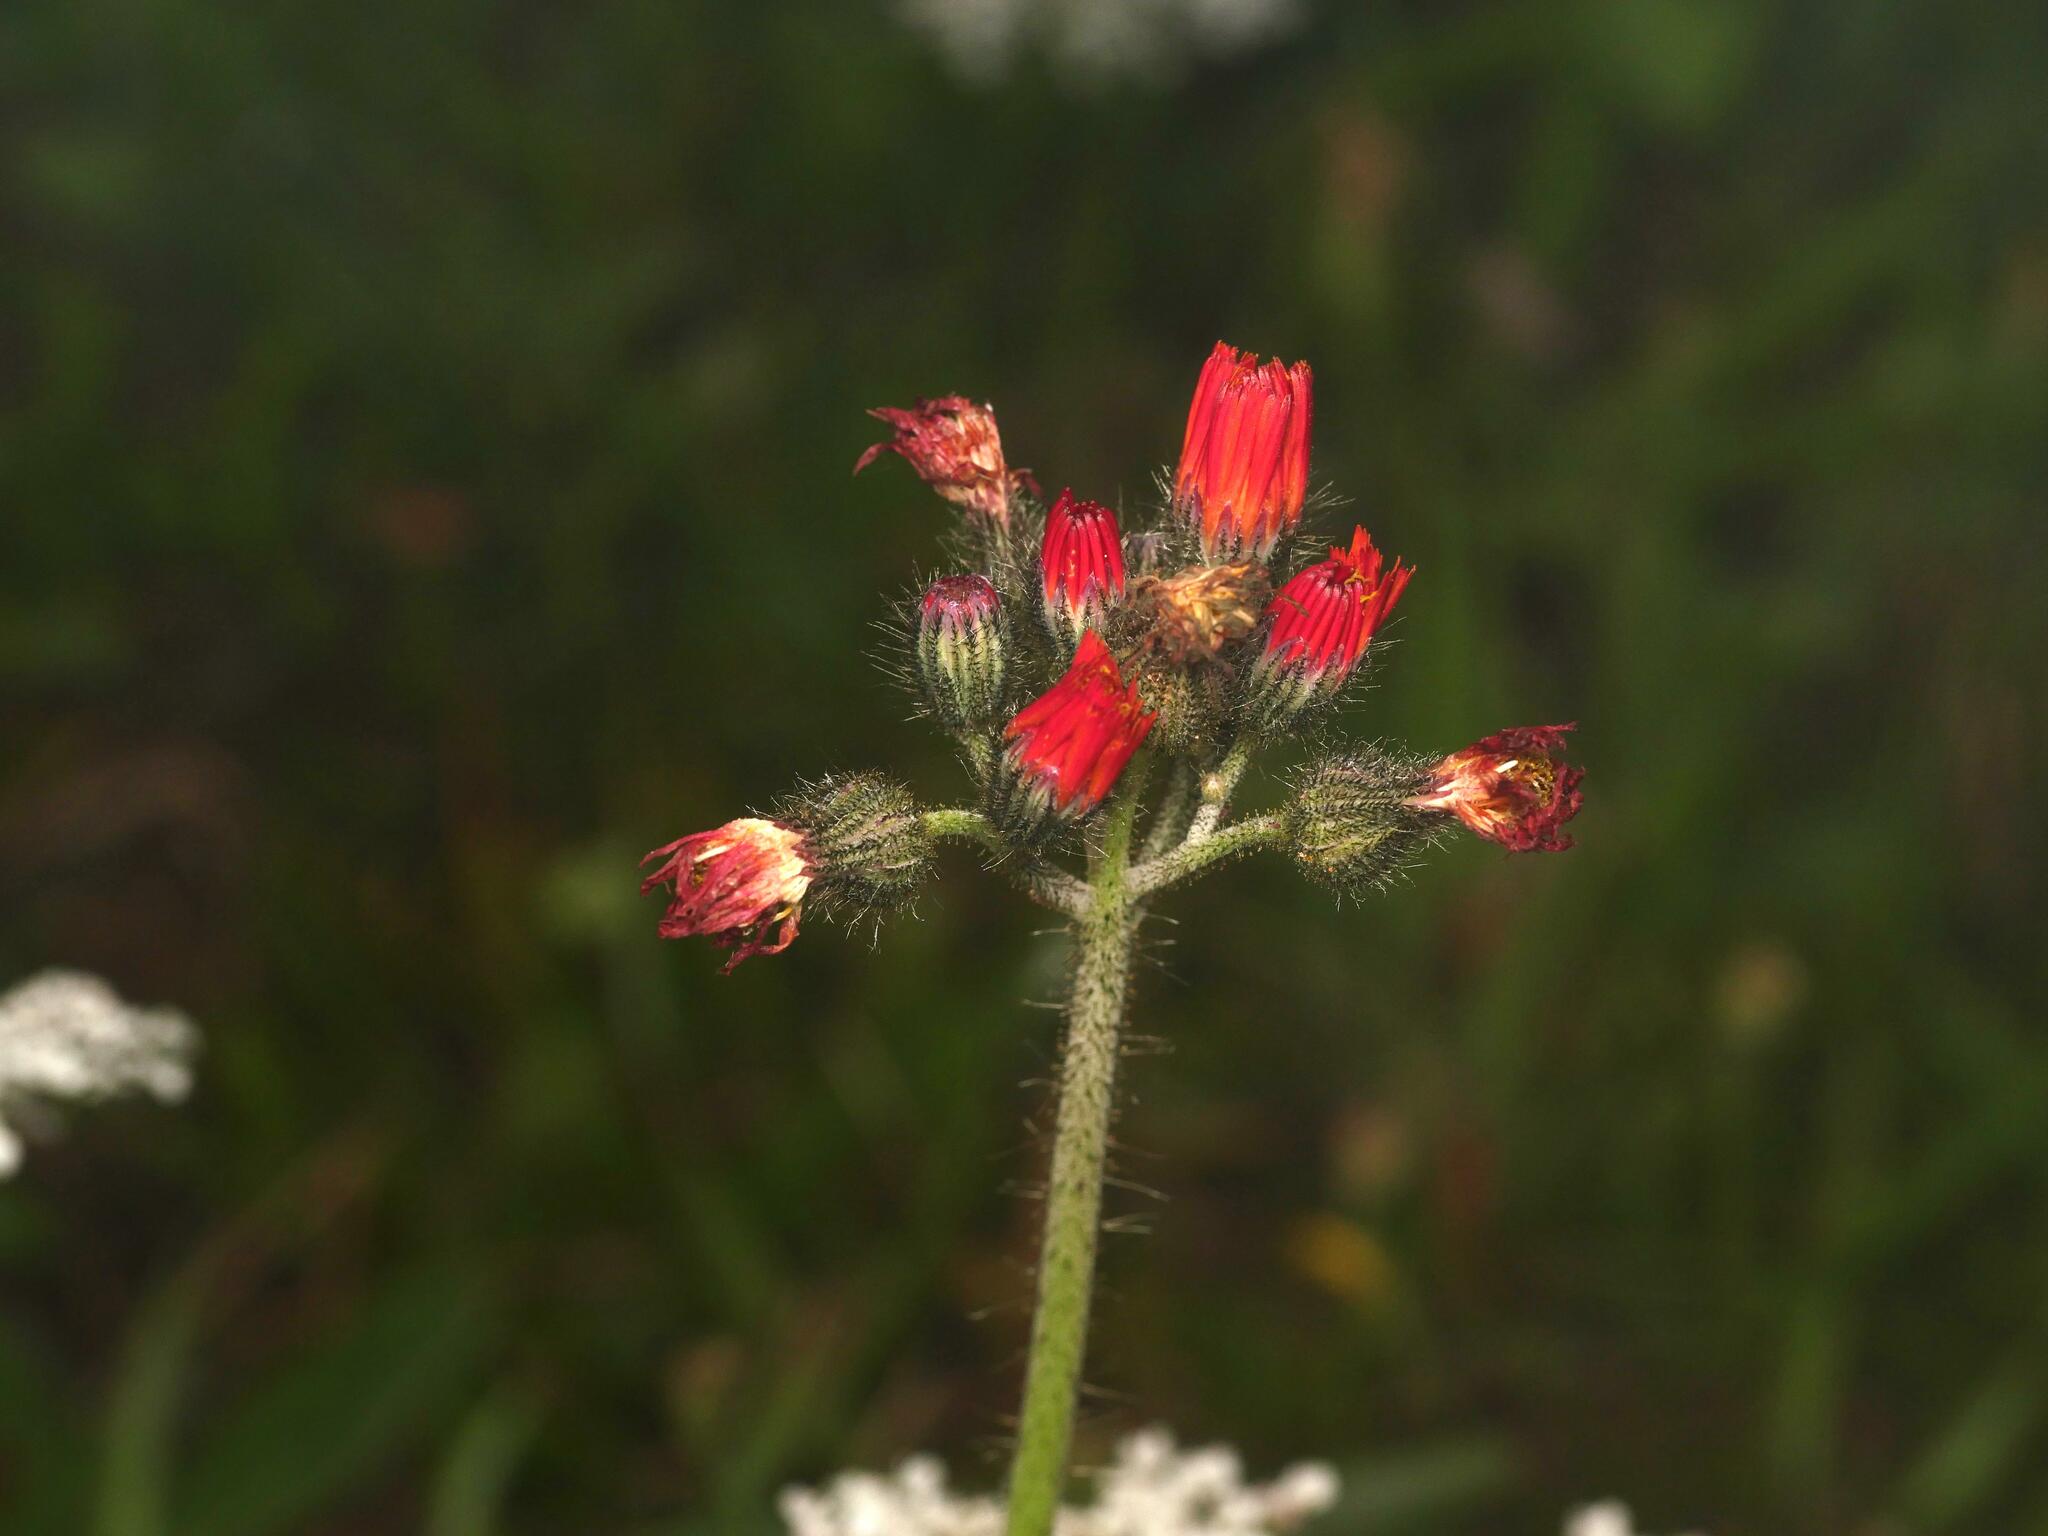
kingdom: Plantae
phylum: Tracheophyta
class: Magnoliopsida
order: Asterales
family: Asteraceae
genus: Pilosella
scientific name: Pilosella aurantiaca
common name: Fox-and-cubs
